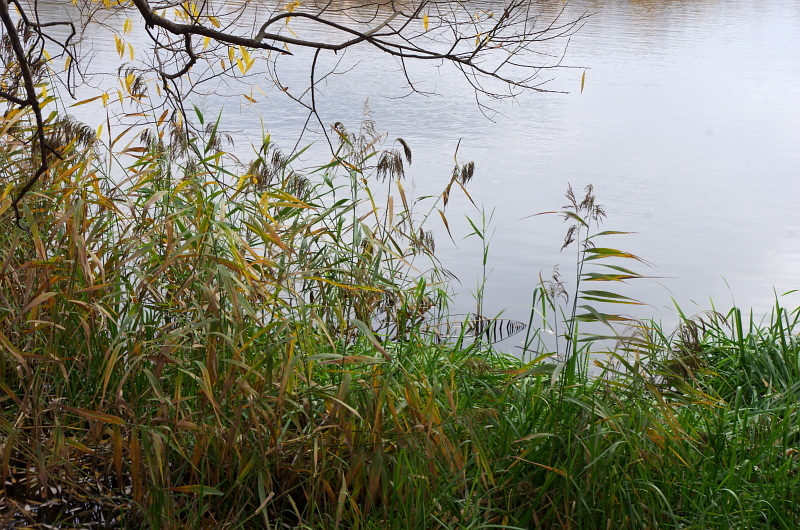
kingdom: Plantae
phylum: Tracheophyta
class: Liliopsida
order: Poales
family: Poaceae
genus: Phragmites
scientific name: Phragmites australis
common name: Common reed
